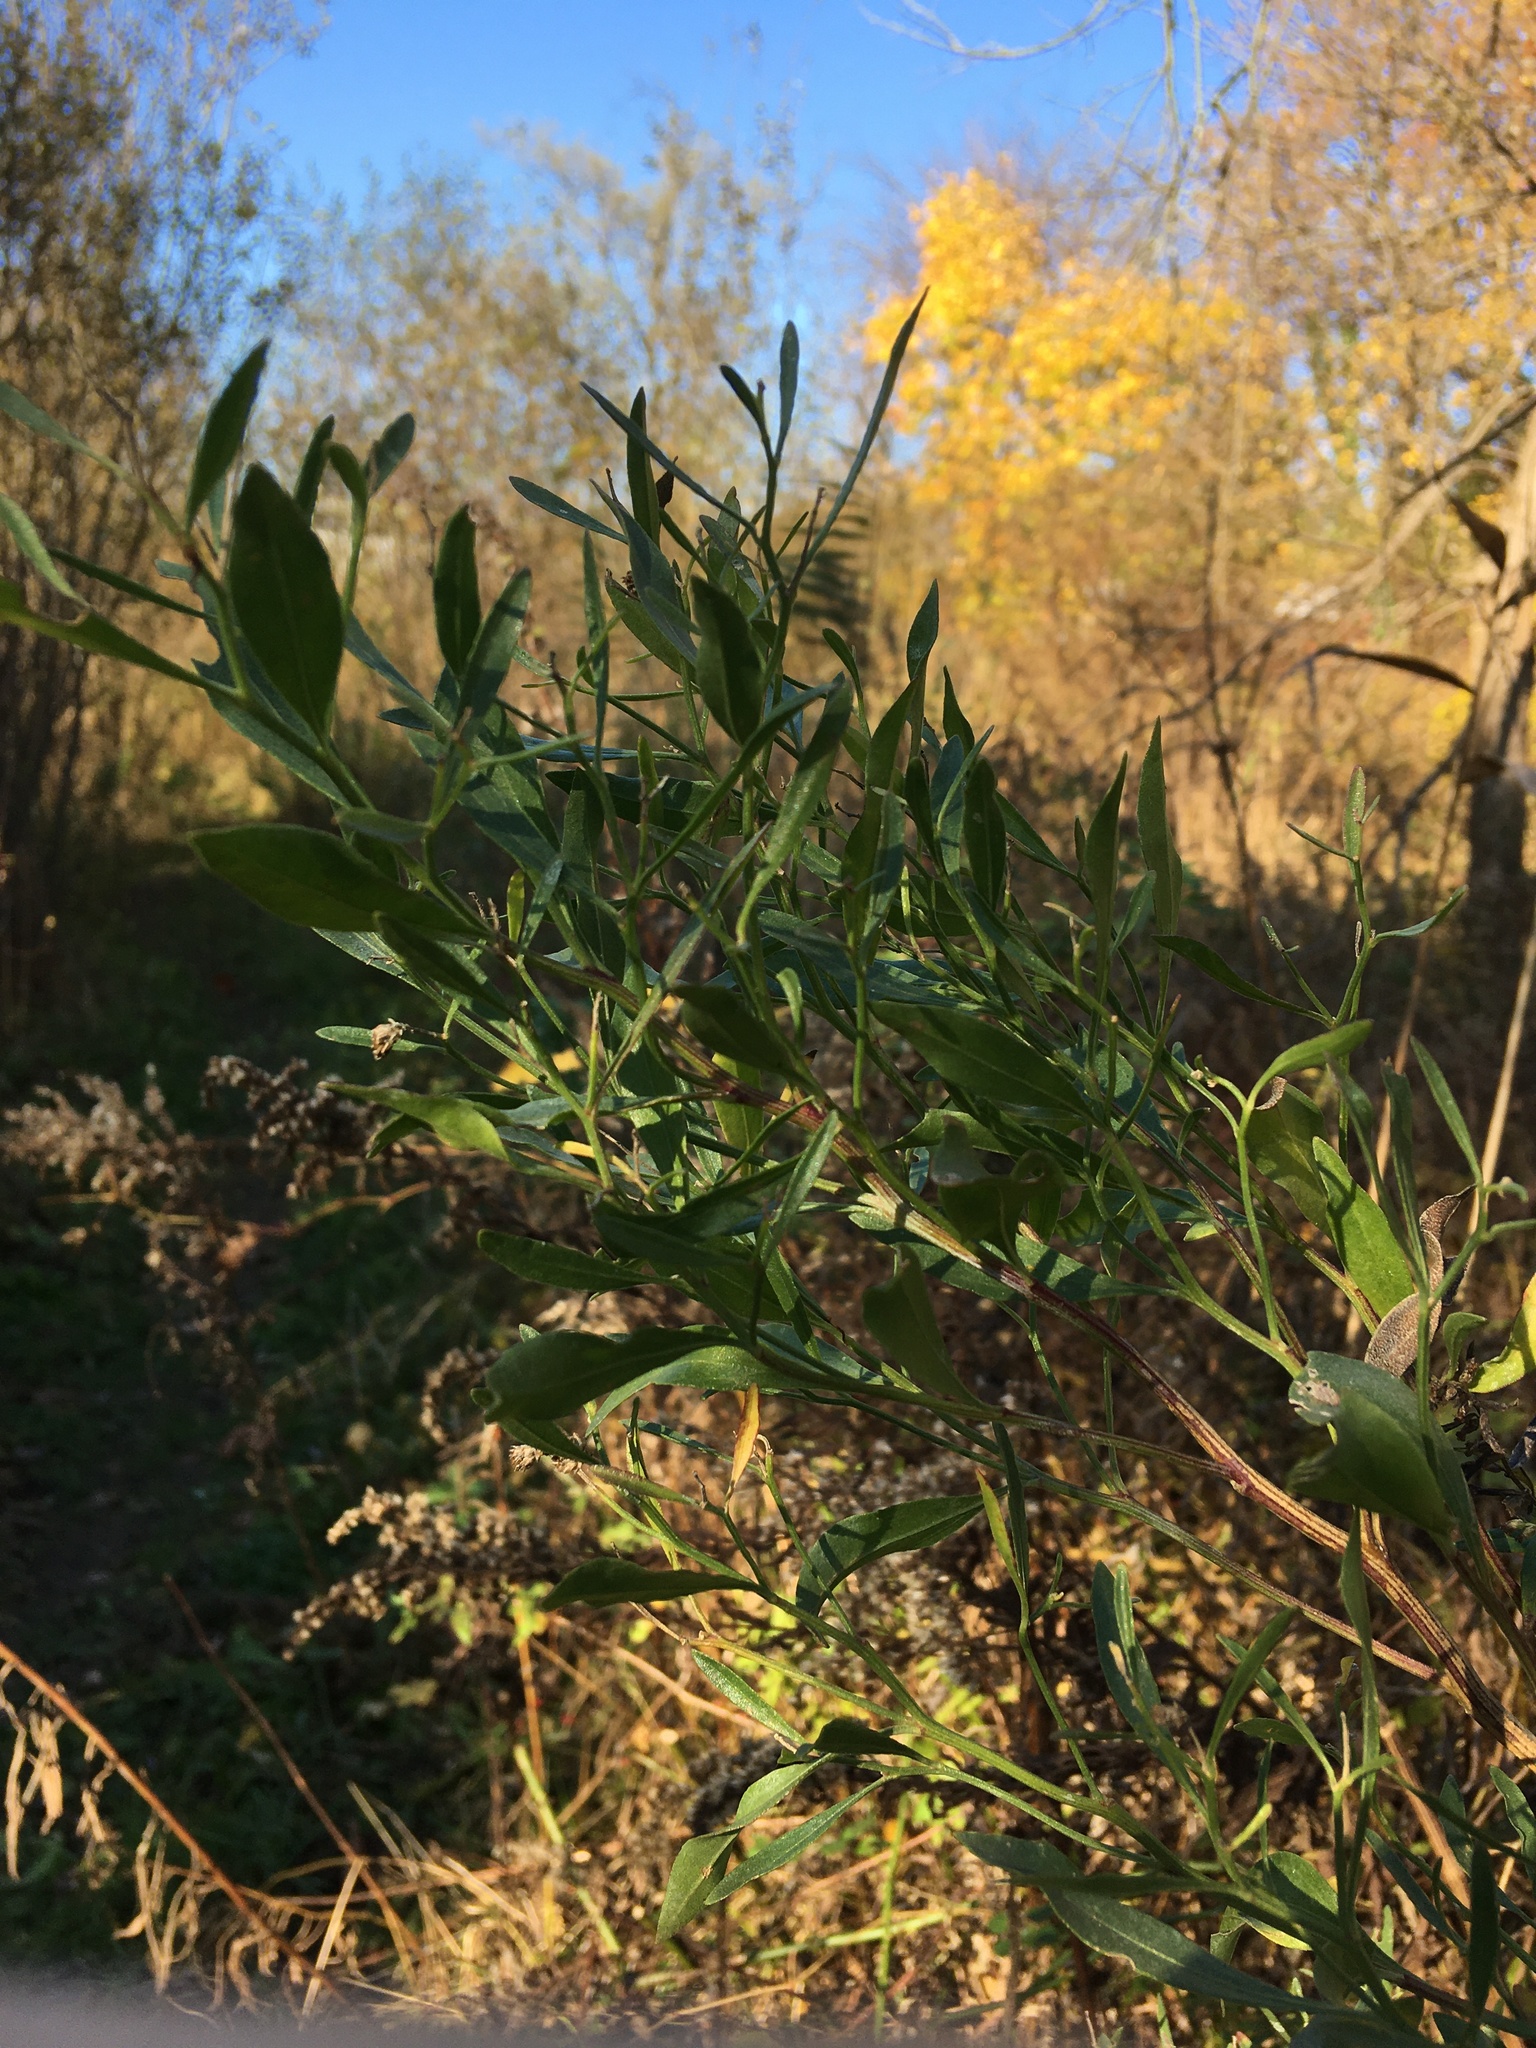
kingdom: Plantae
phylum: Tracheophyta
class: Magnoliopsida
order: Asterales
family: Asteraceae
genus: Baccharis
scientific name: Baccharis halimifolia
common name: Eastern baccharis
